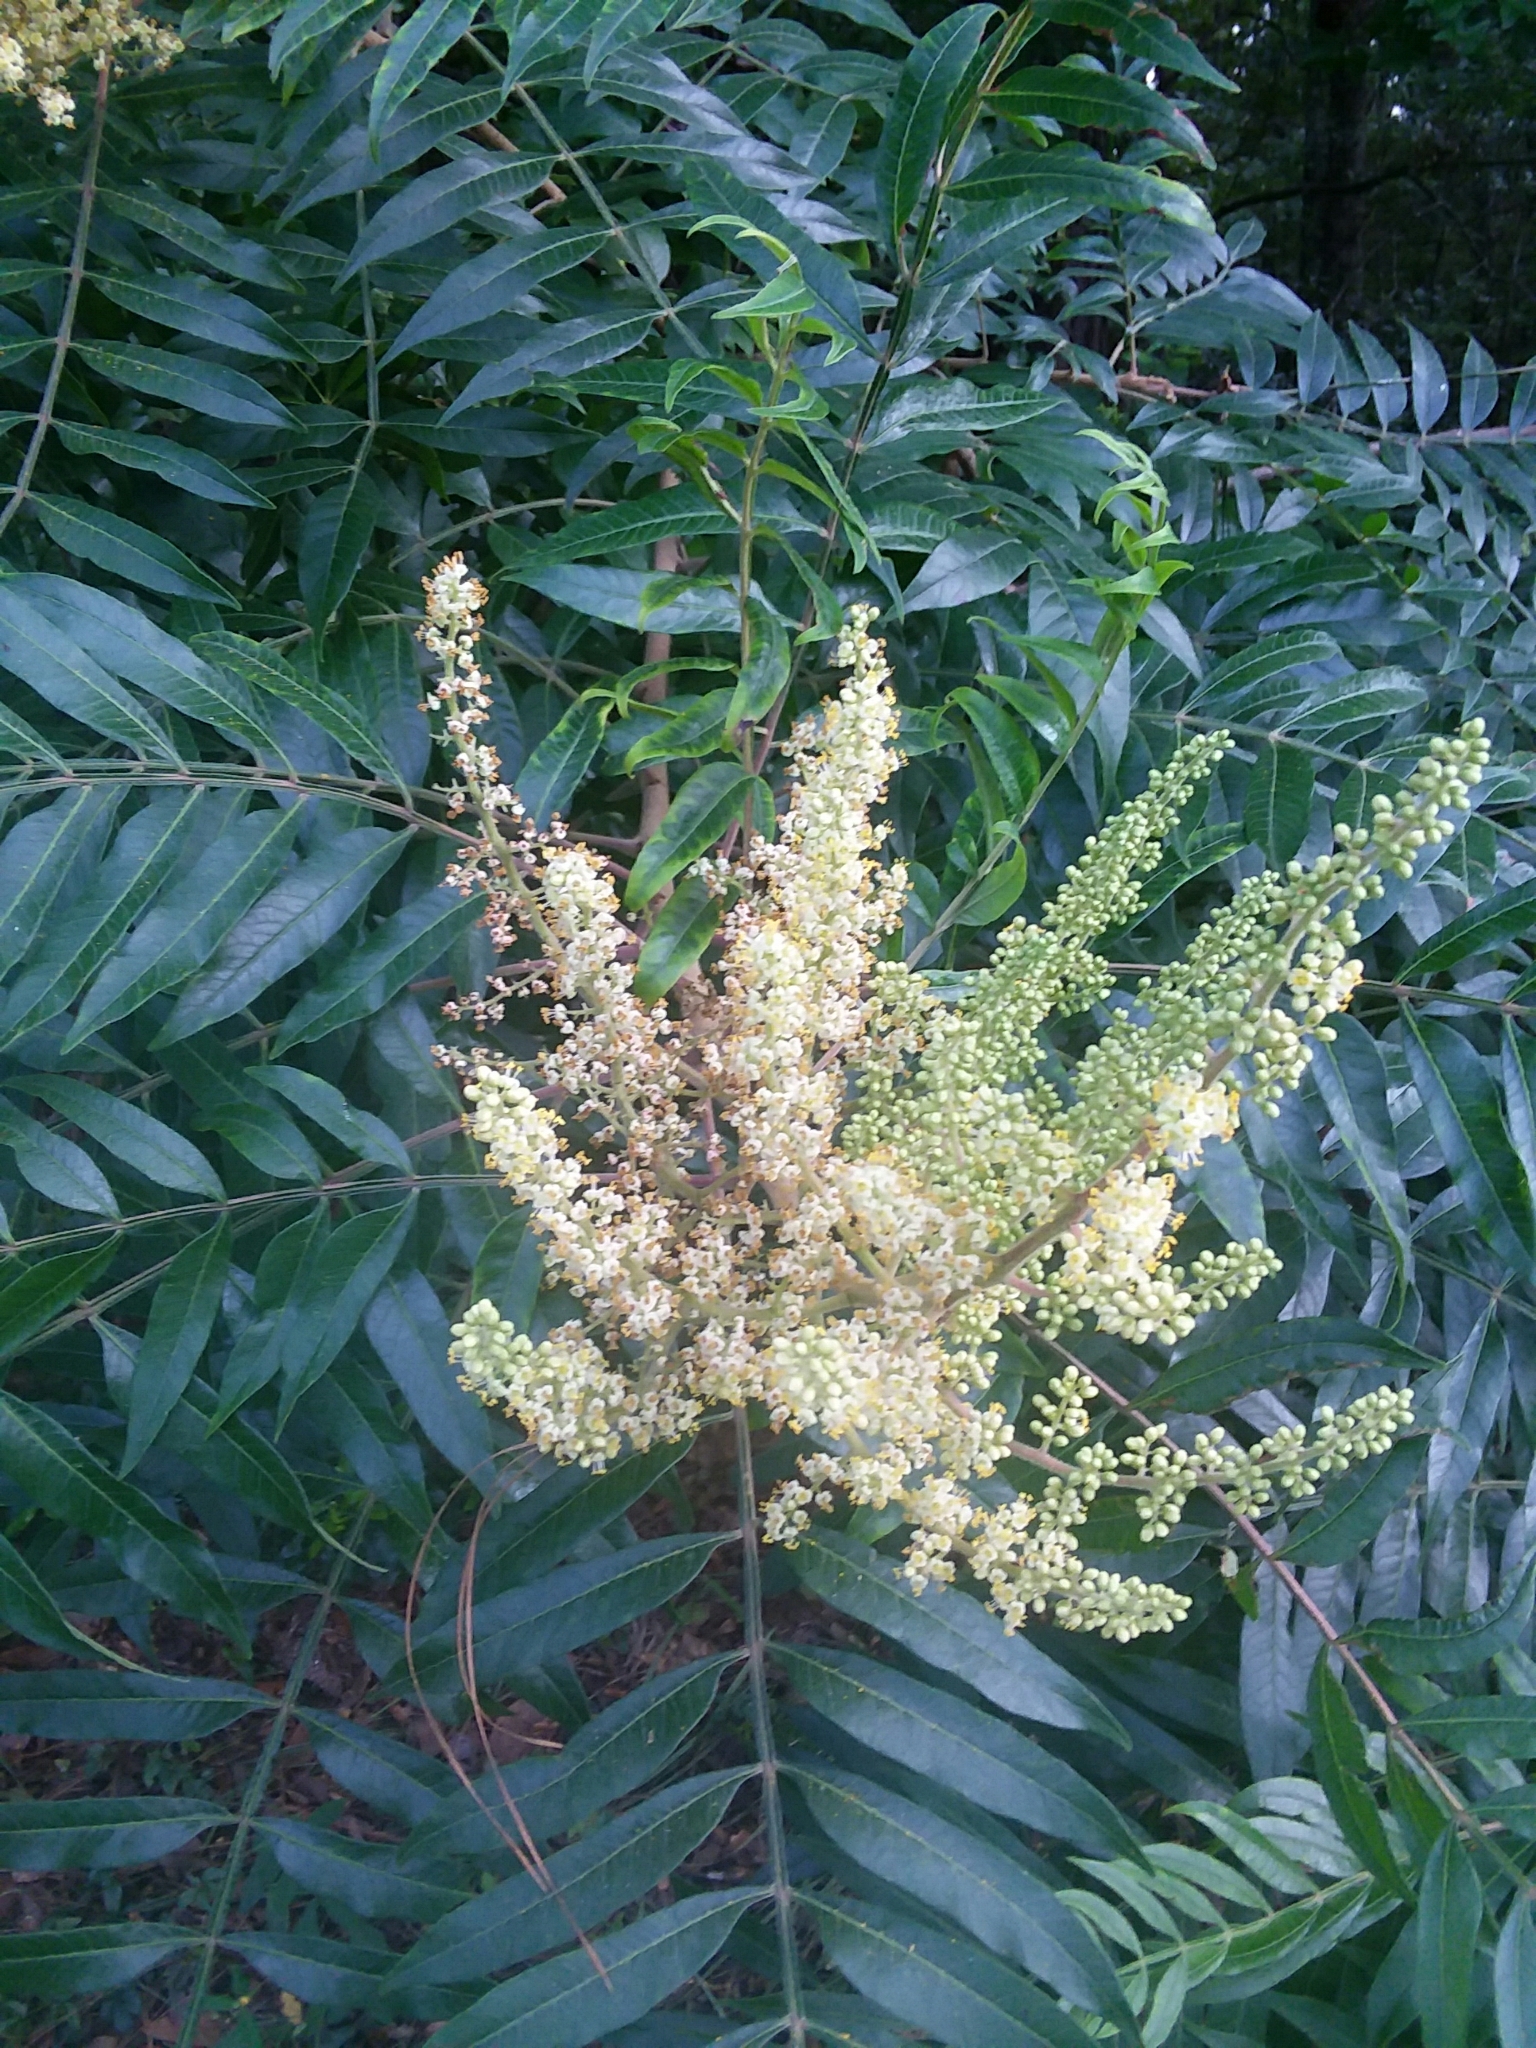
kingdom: Plantae
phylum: Tracheophyta
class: Magnoliopsida
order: Sapindales
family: Anacardiaceae
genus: Rhus
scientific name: Rhus copallina
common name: Shining sumac
